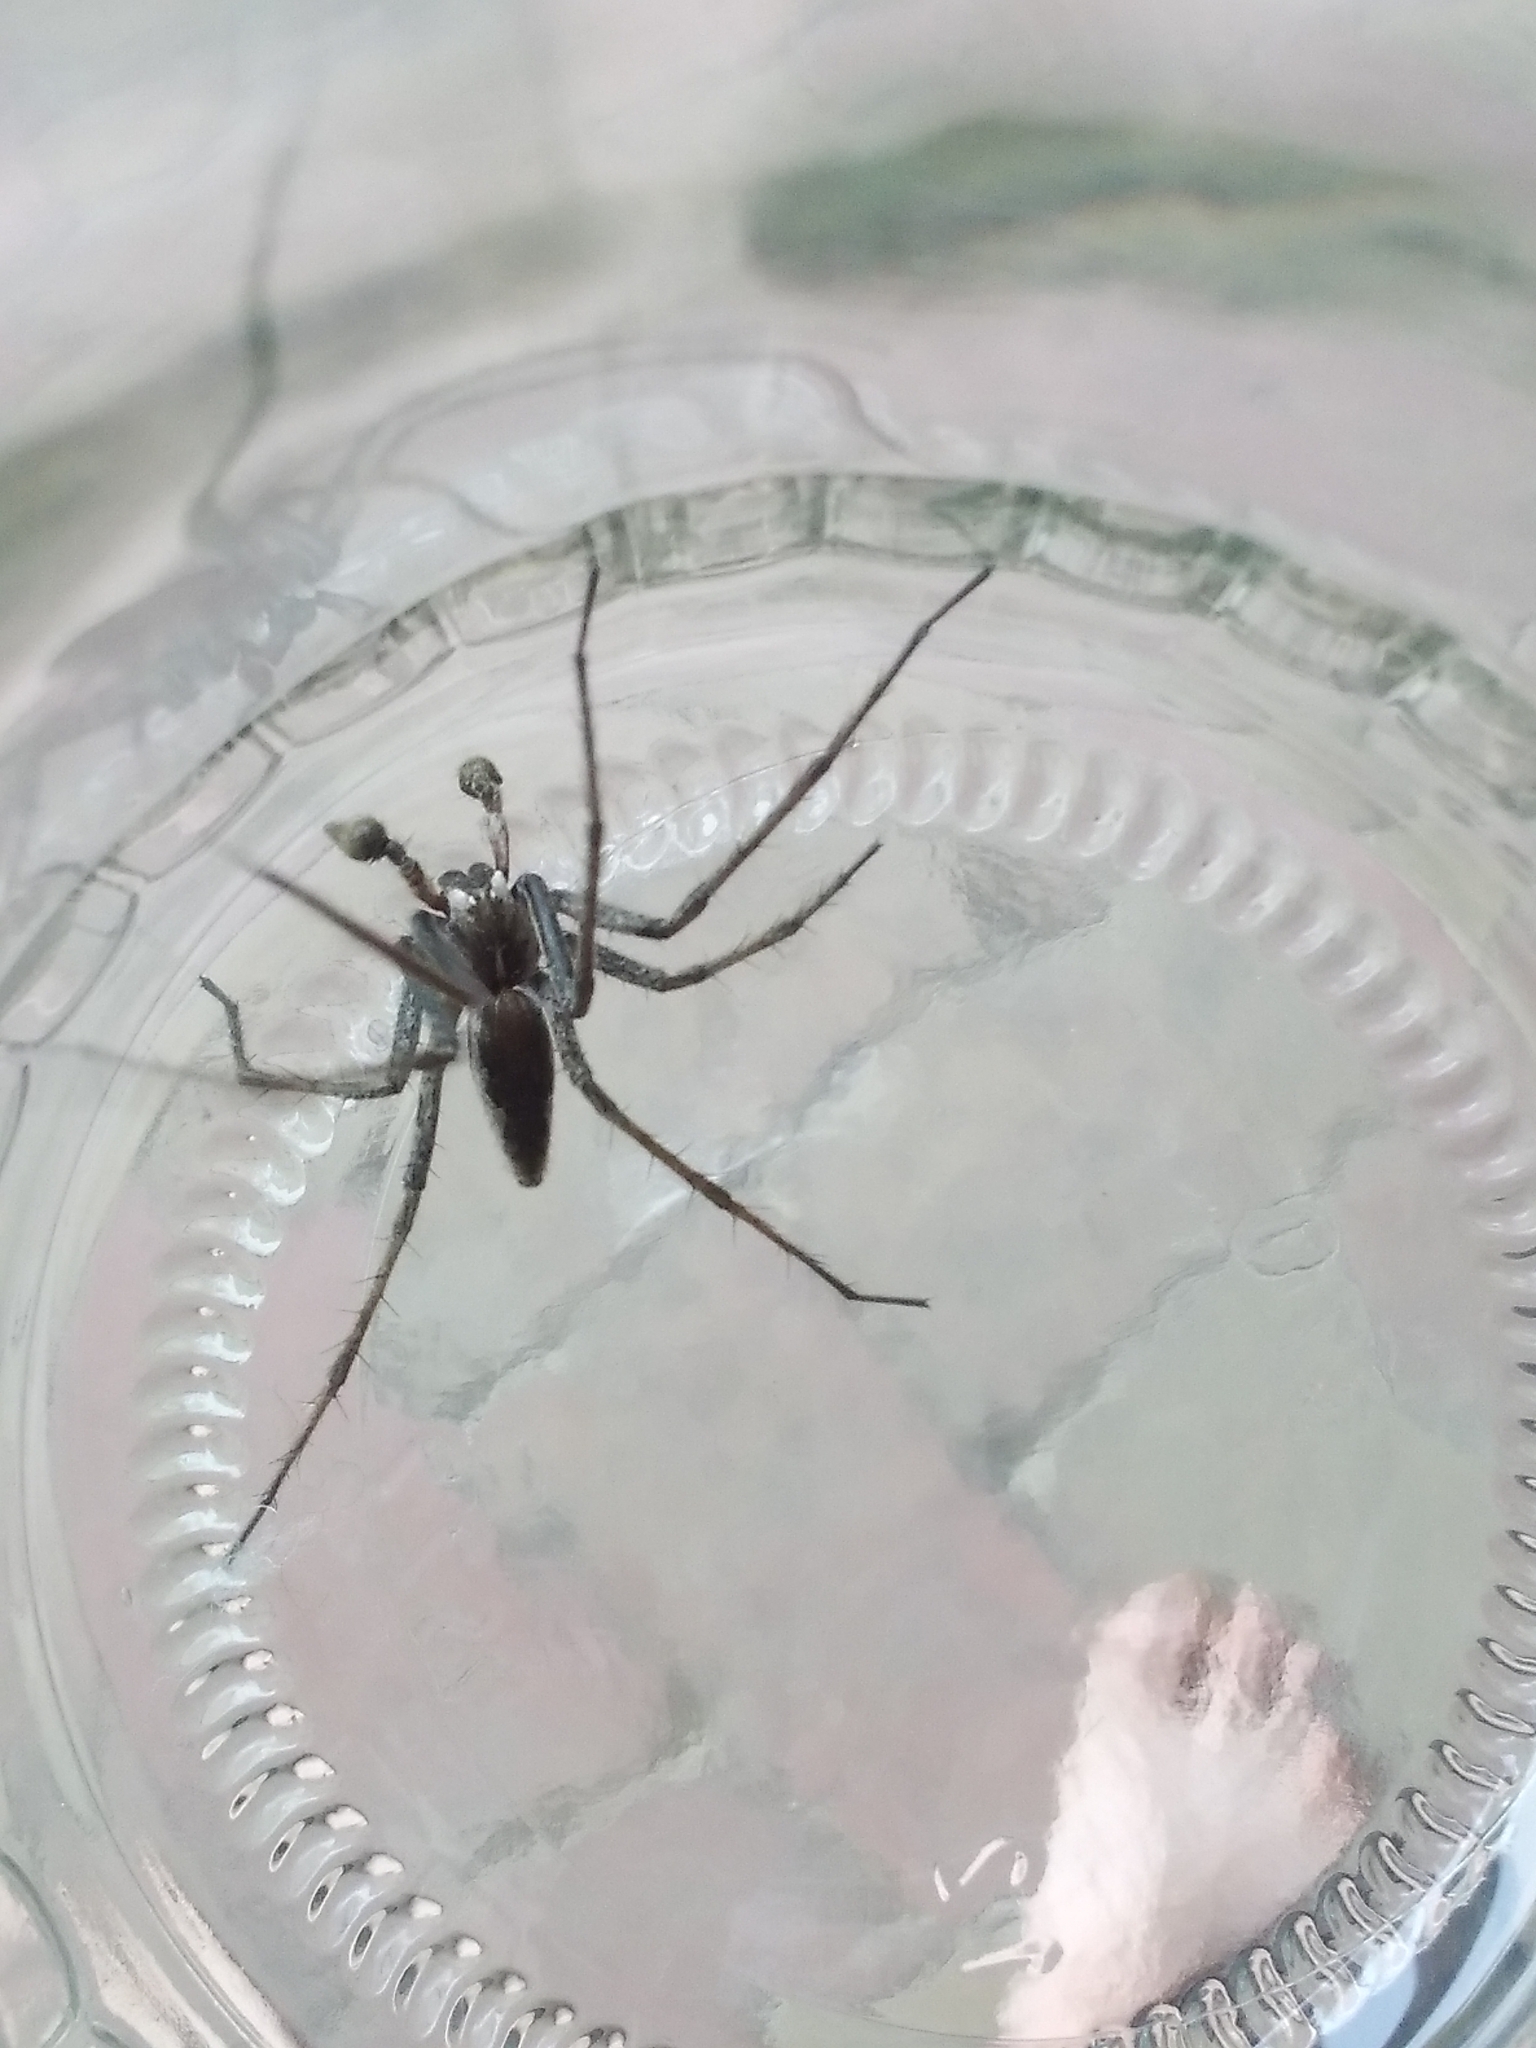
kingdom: Animalia
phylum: Arthropoda
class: Arachnida
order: Araneae
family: Pisauridae
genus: Pisaura
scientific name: Pisaura mirabilis
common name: Tent spider
